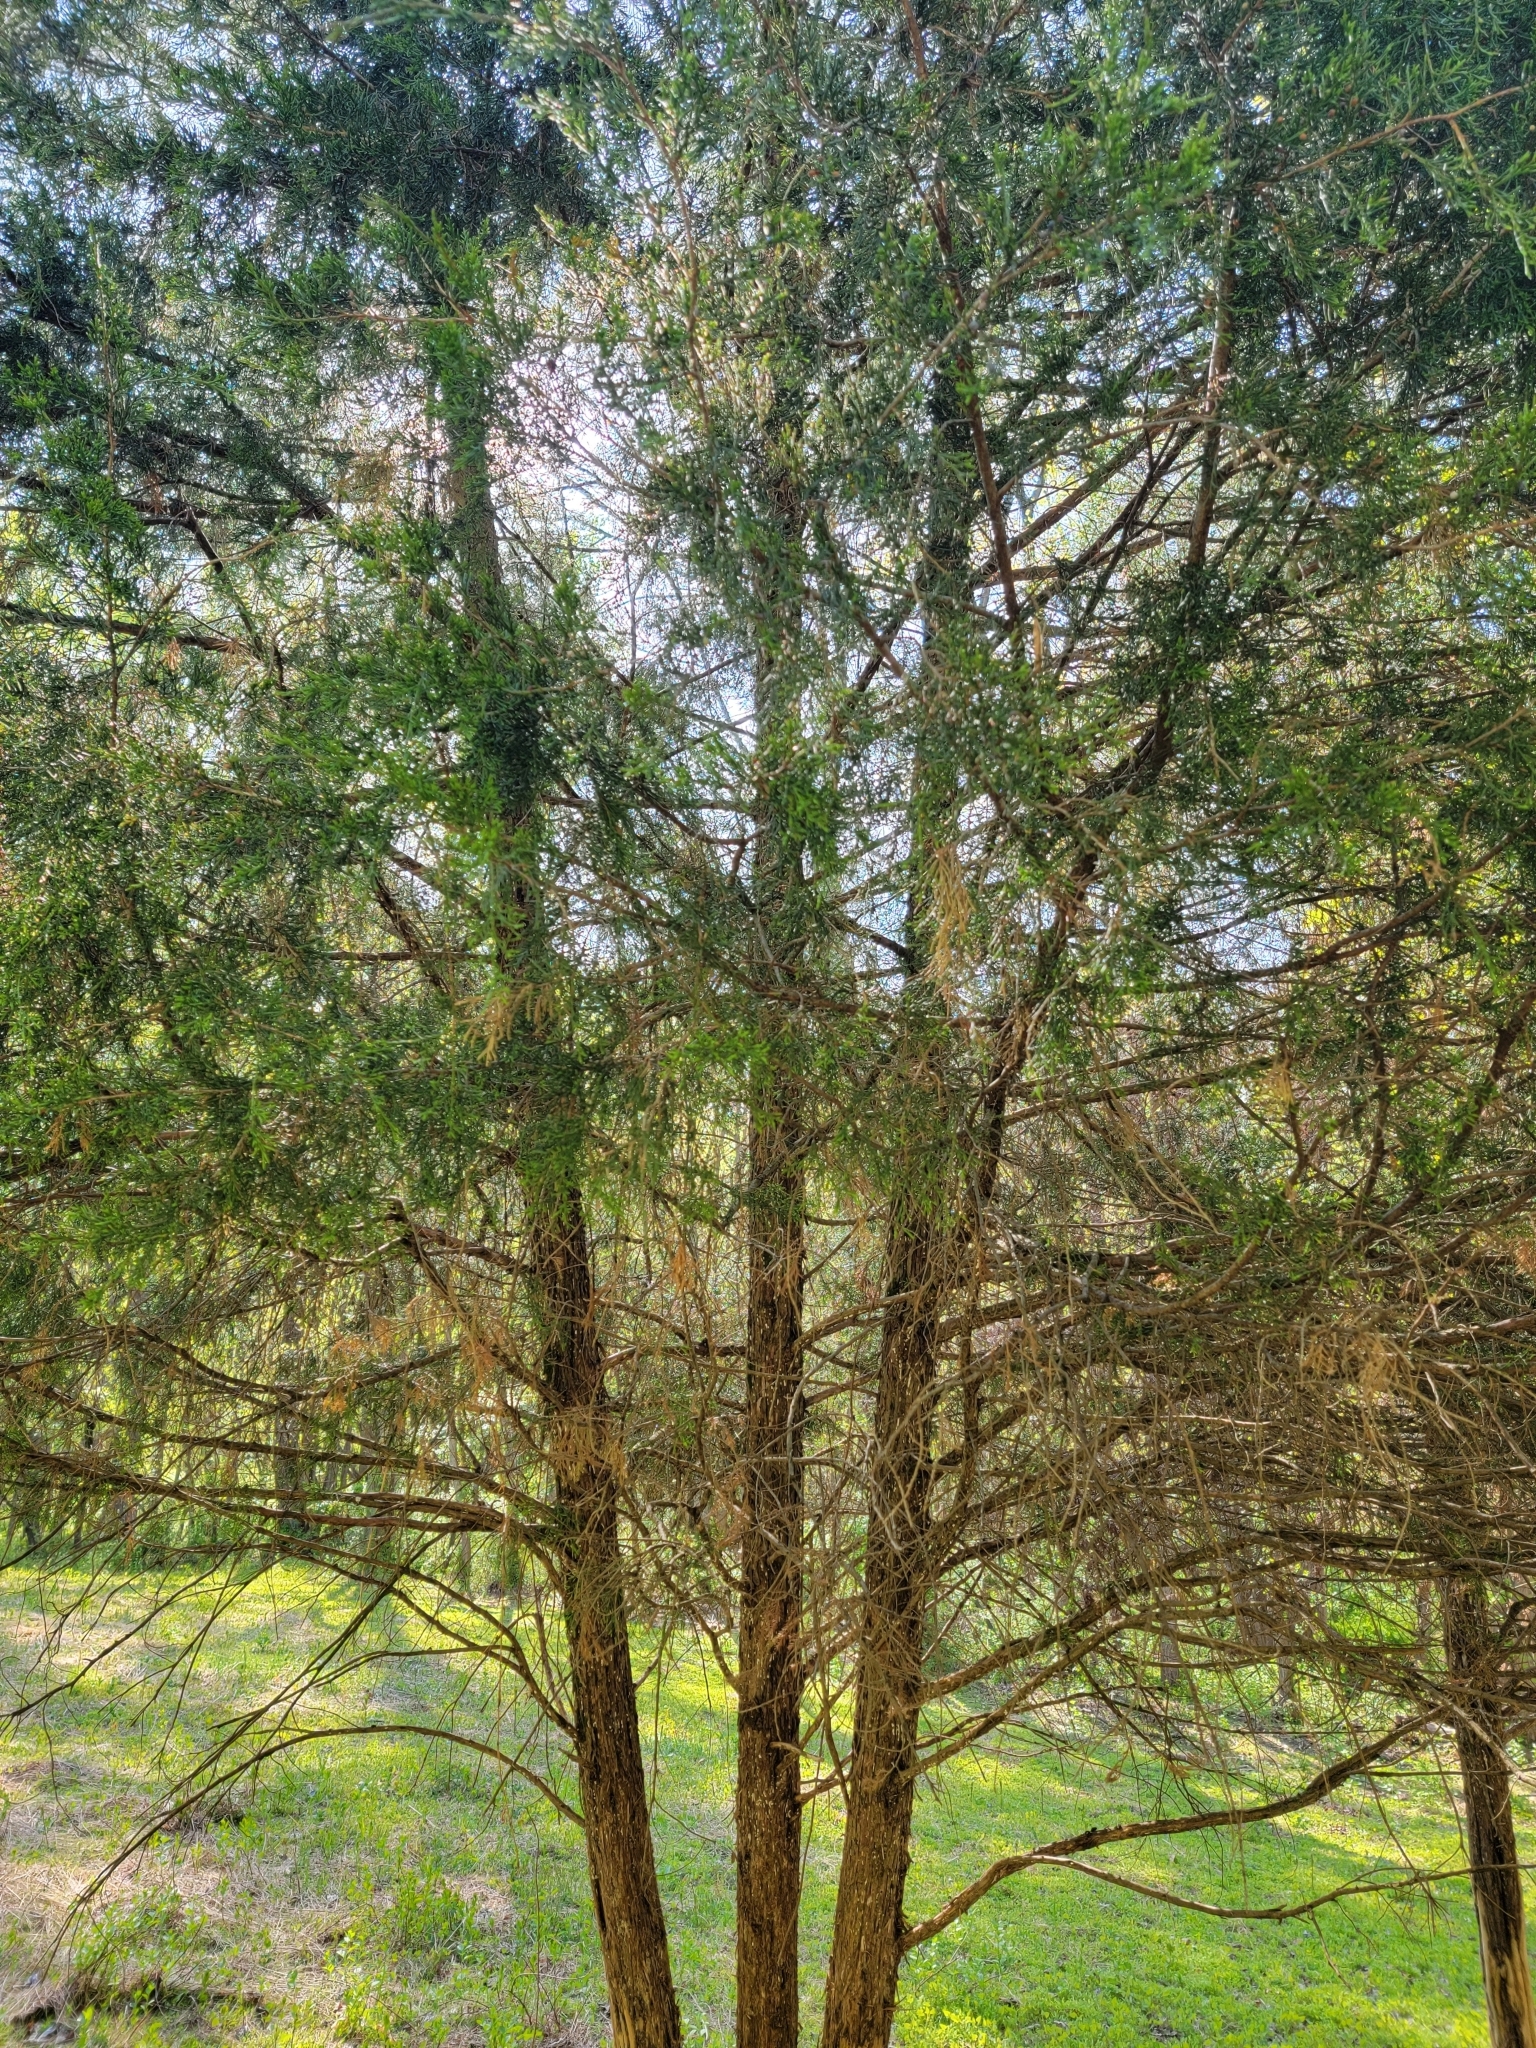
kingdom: Plantae
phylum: Tracheophyta
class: Pinopsida
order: Pinales
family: Cupressaceae
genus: Juniperus
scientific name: Juniperus virginiana
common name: Red juniper
